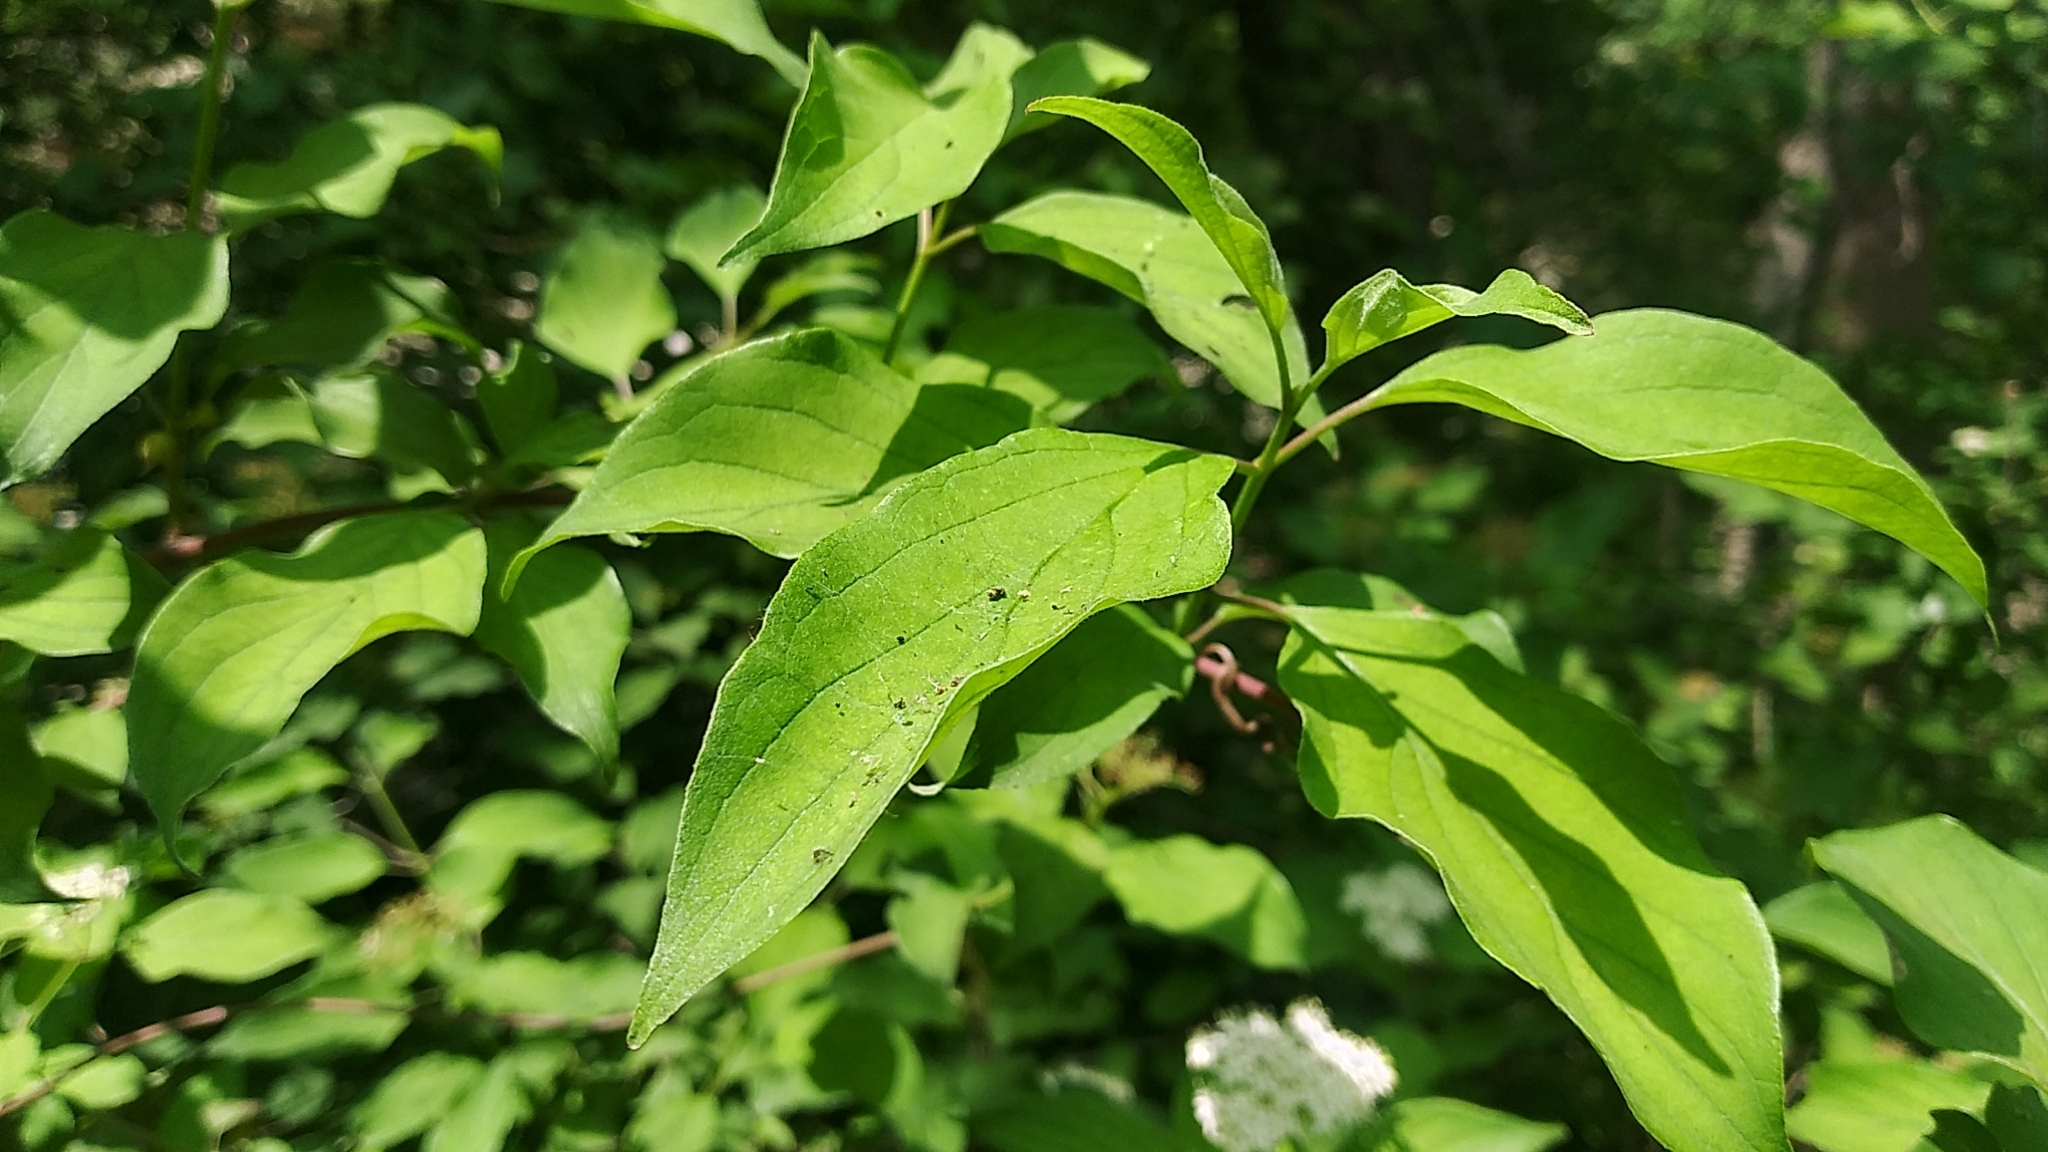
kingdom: Plantae
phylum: Tracheophyta
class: Magnoliopsida
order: Cornales
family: Cornaceae
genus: Cornus
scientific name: Cornus drummondii
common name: Rough-leaf dogwood
